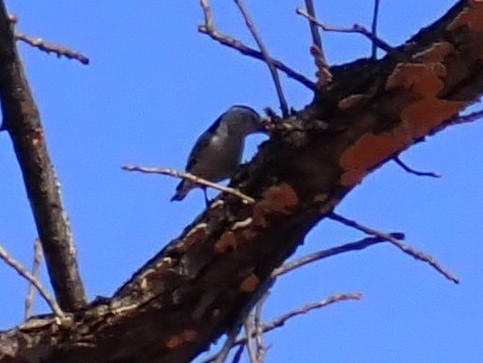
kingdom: Animalia
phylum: Chordata
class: Aves
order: Passeriformes
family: Sittidae
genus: Sitta
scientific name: Sitta carolinensis
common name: White-breasted nuthatch
